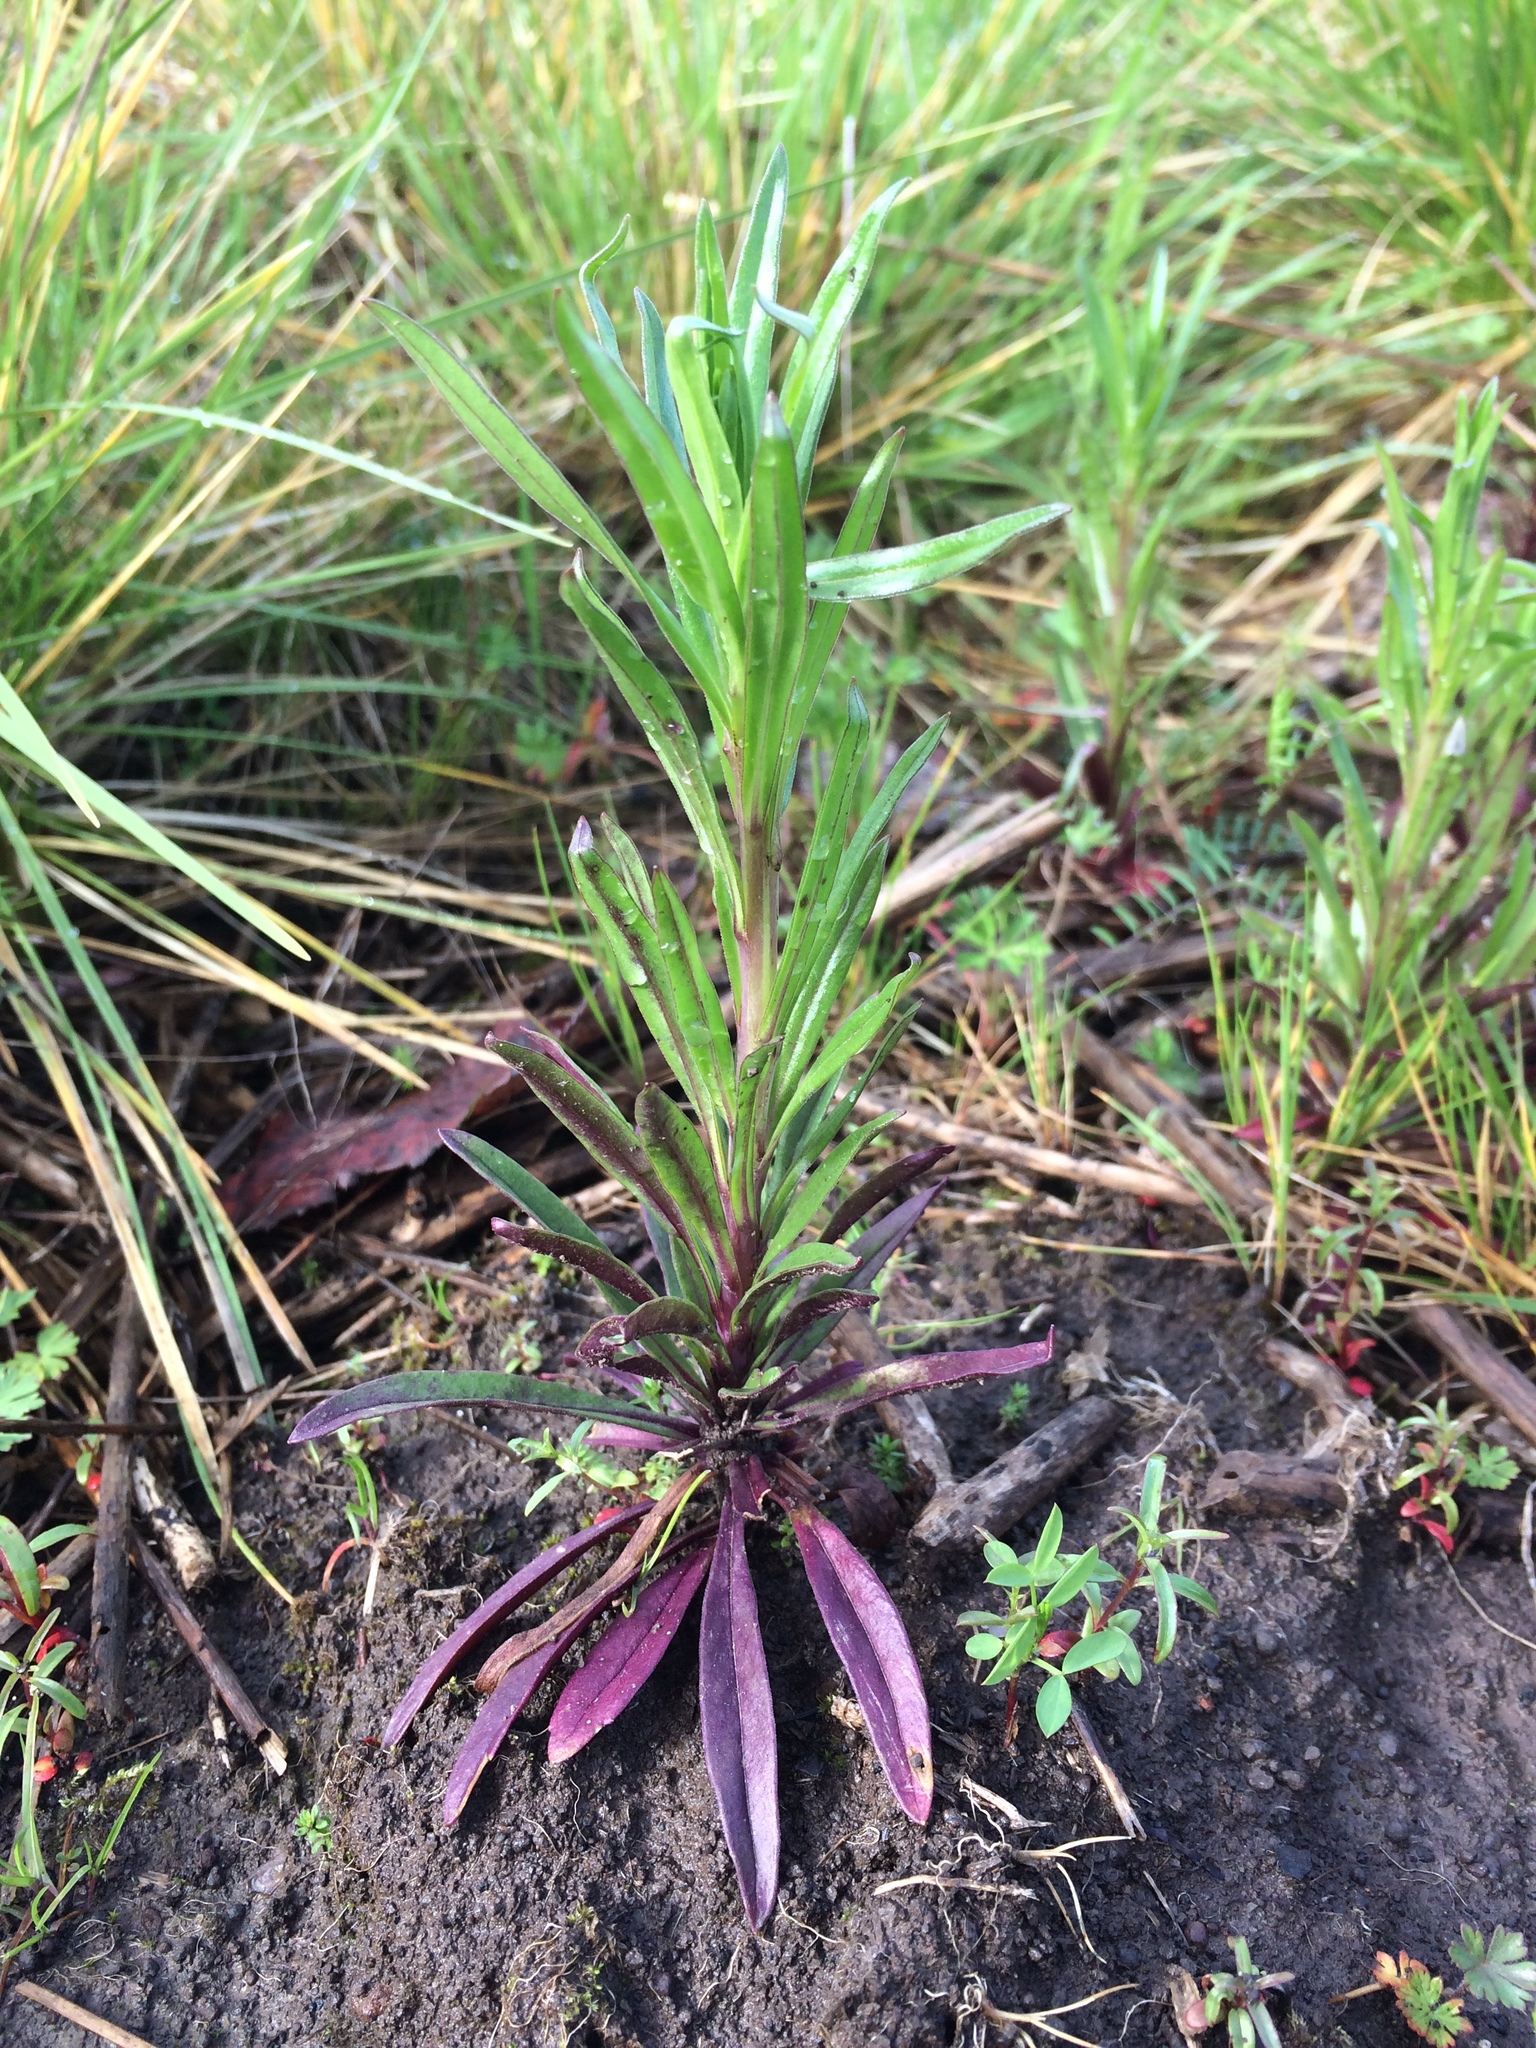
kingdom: Plantae
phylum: Tracheophyta
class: Magnoliopsida
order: Myrtales
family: Onagraceae
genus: Chamaenerion
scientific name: Chamaenerion angustifolium
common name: Fireweed
